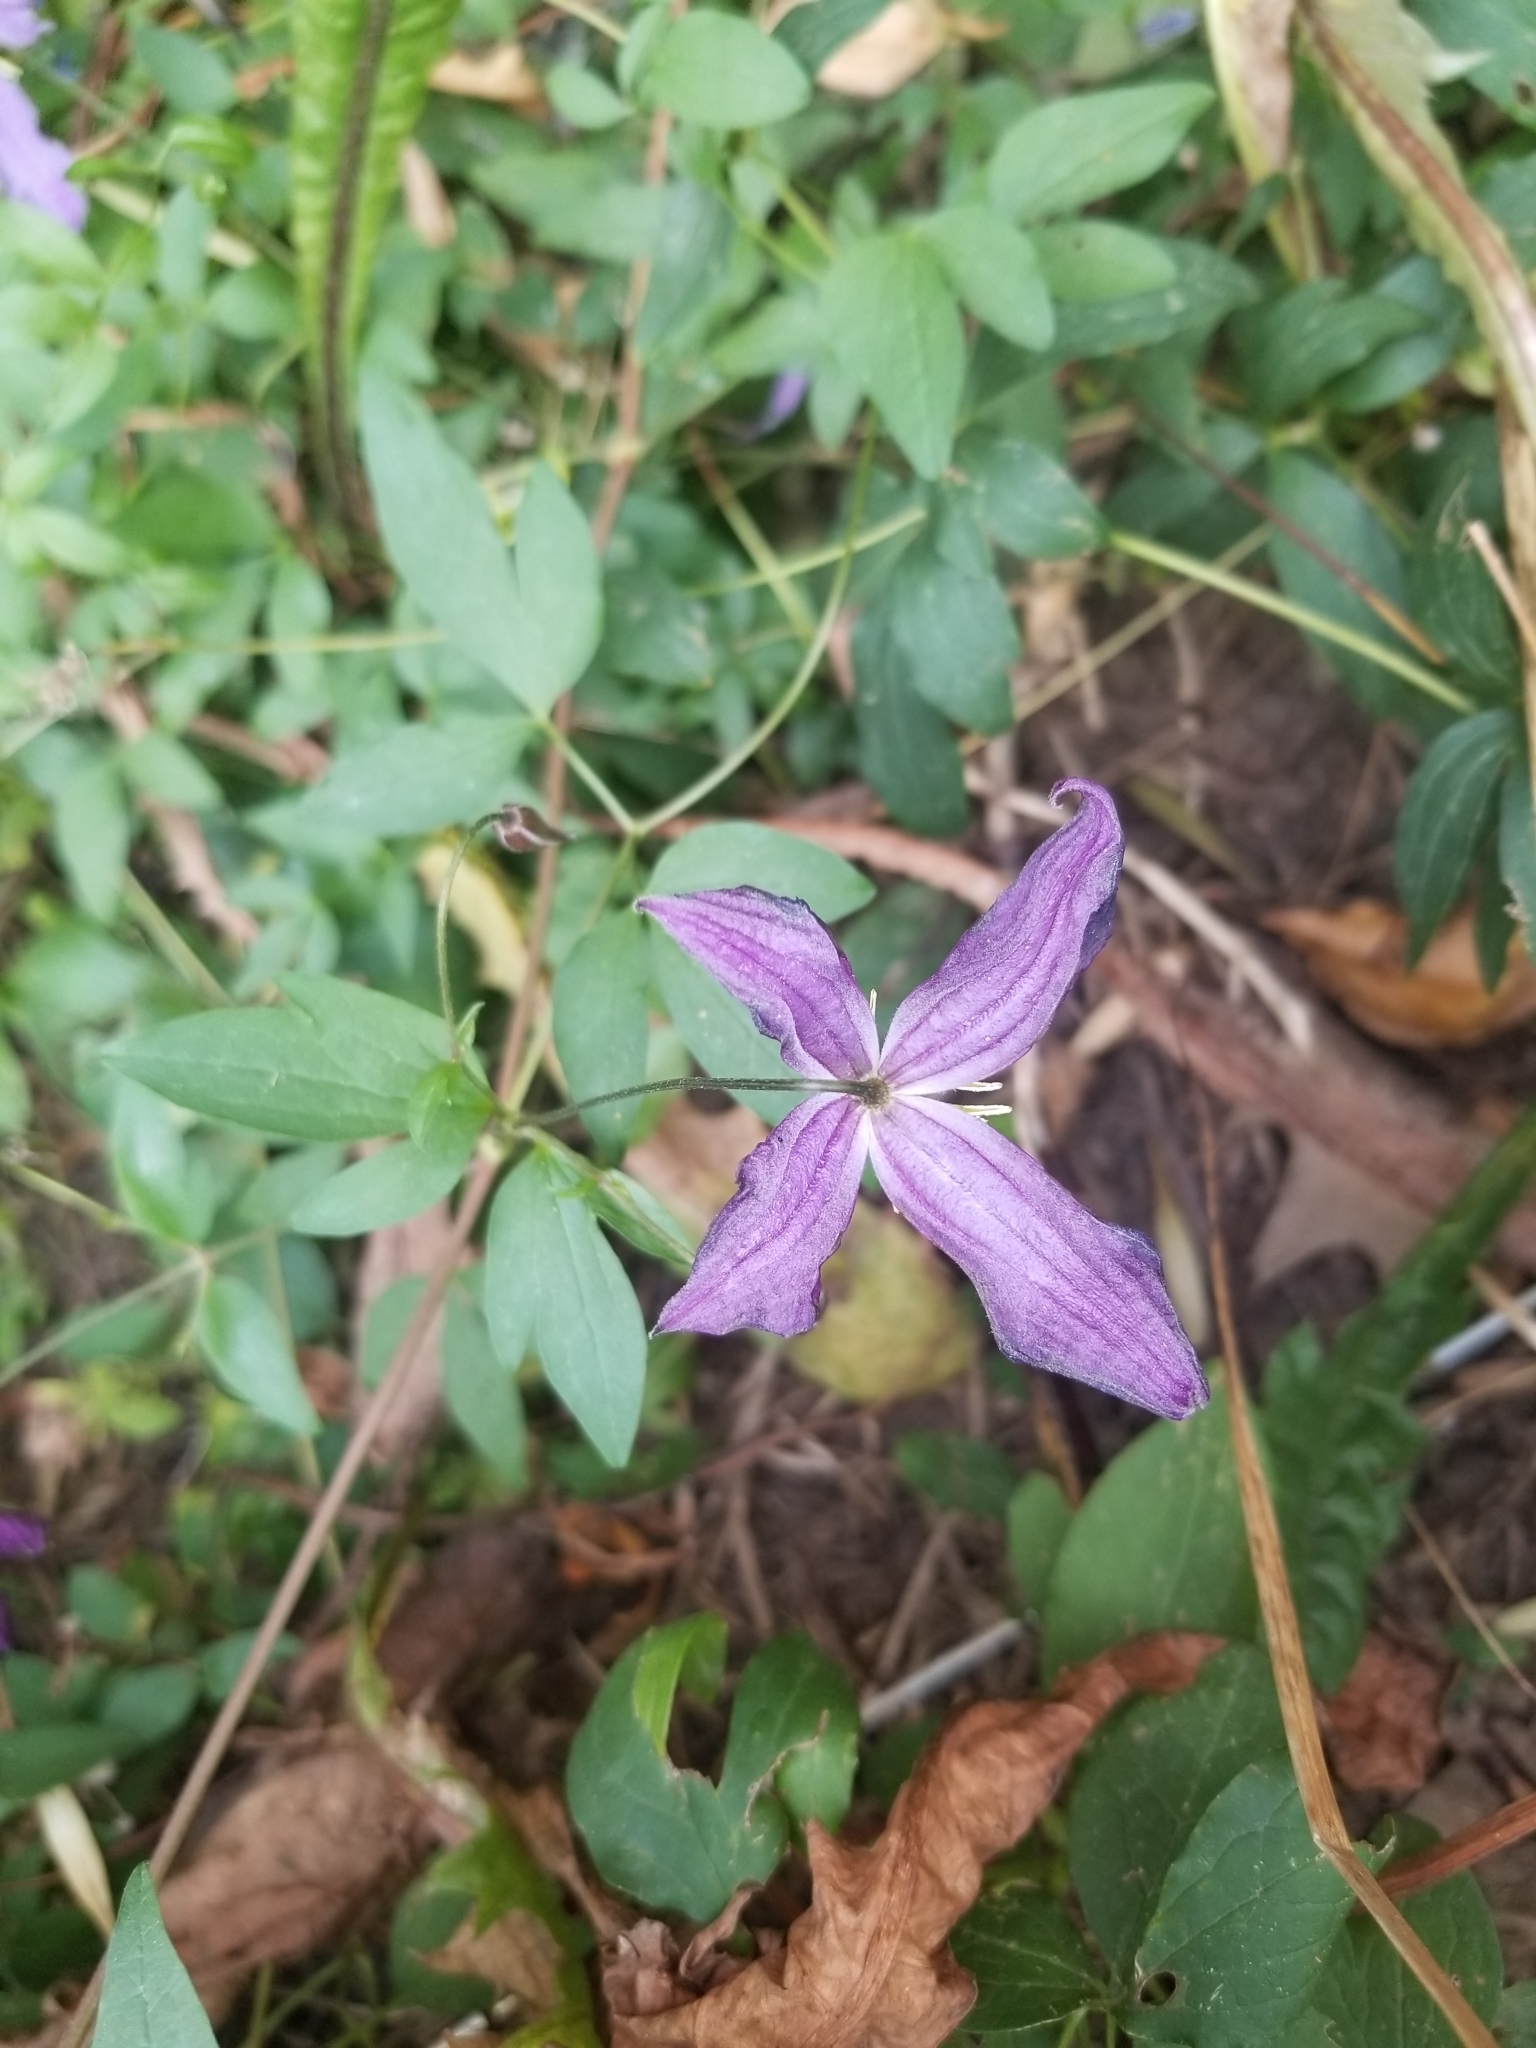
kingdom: Plantae
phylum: Tracheophyta
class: Magnoliopsida
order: Ranunculales
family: Ranunculaceae
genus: Clematis
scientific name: Clematis occidentalis
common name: Purple clematis
